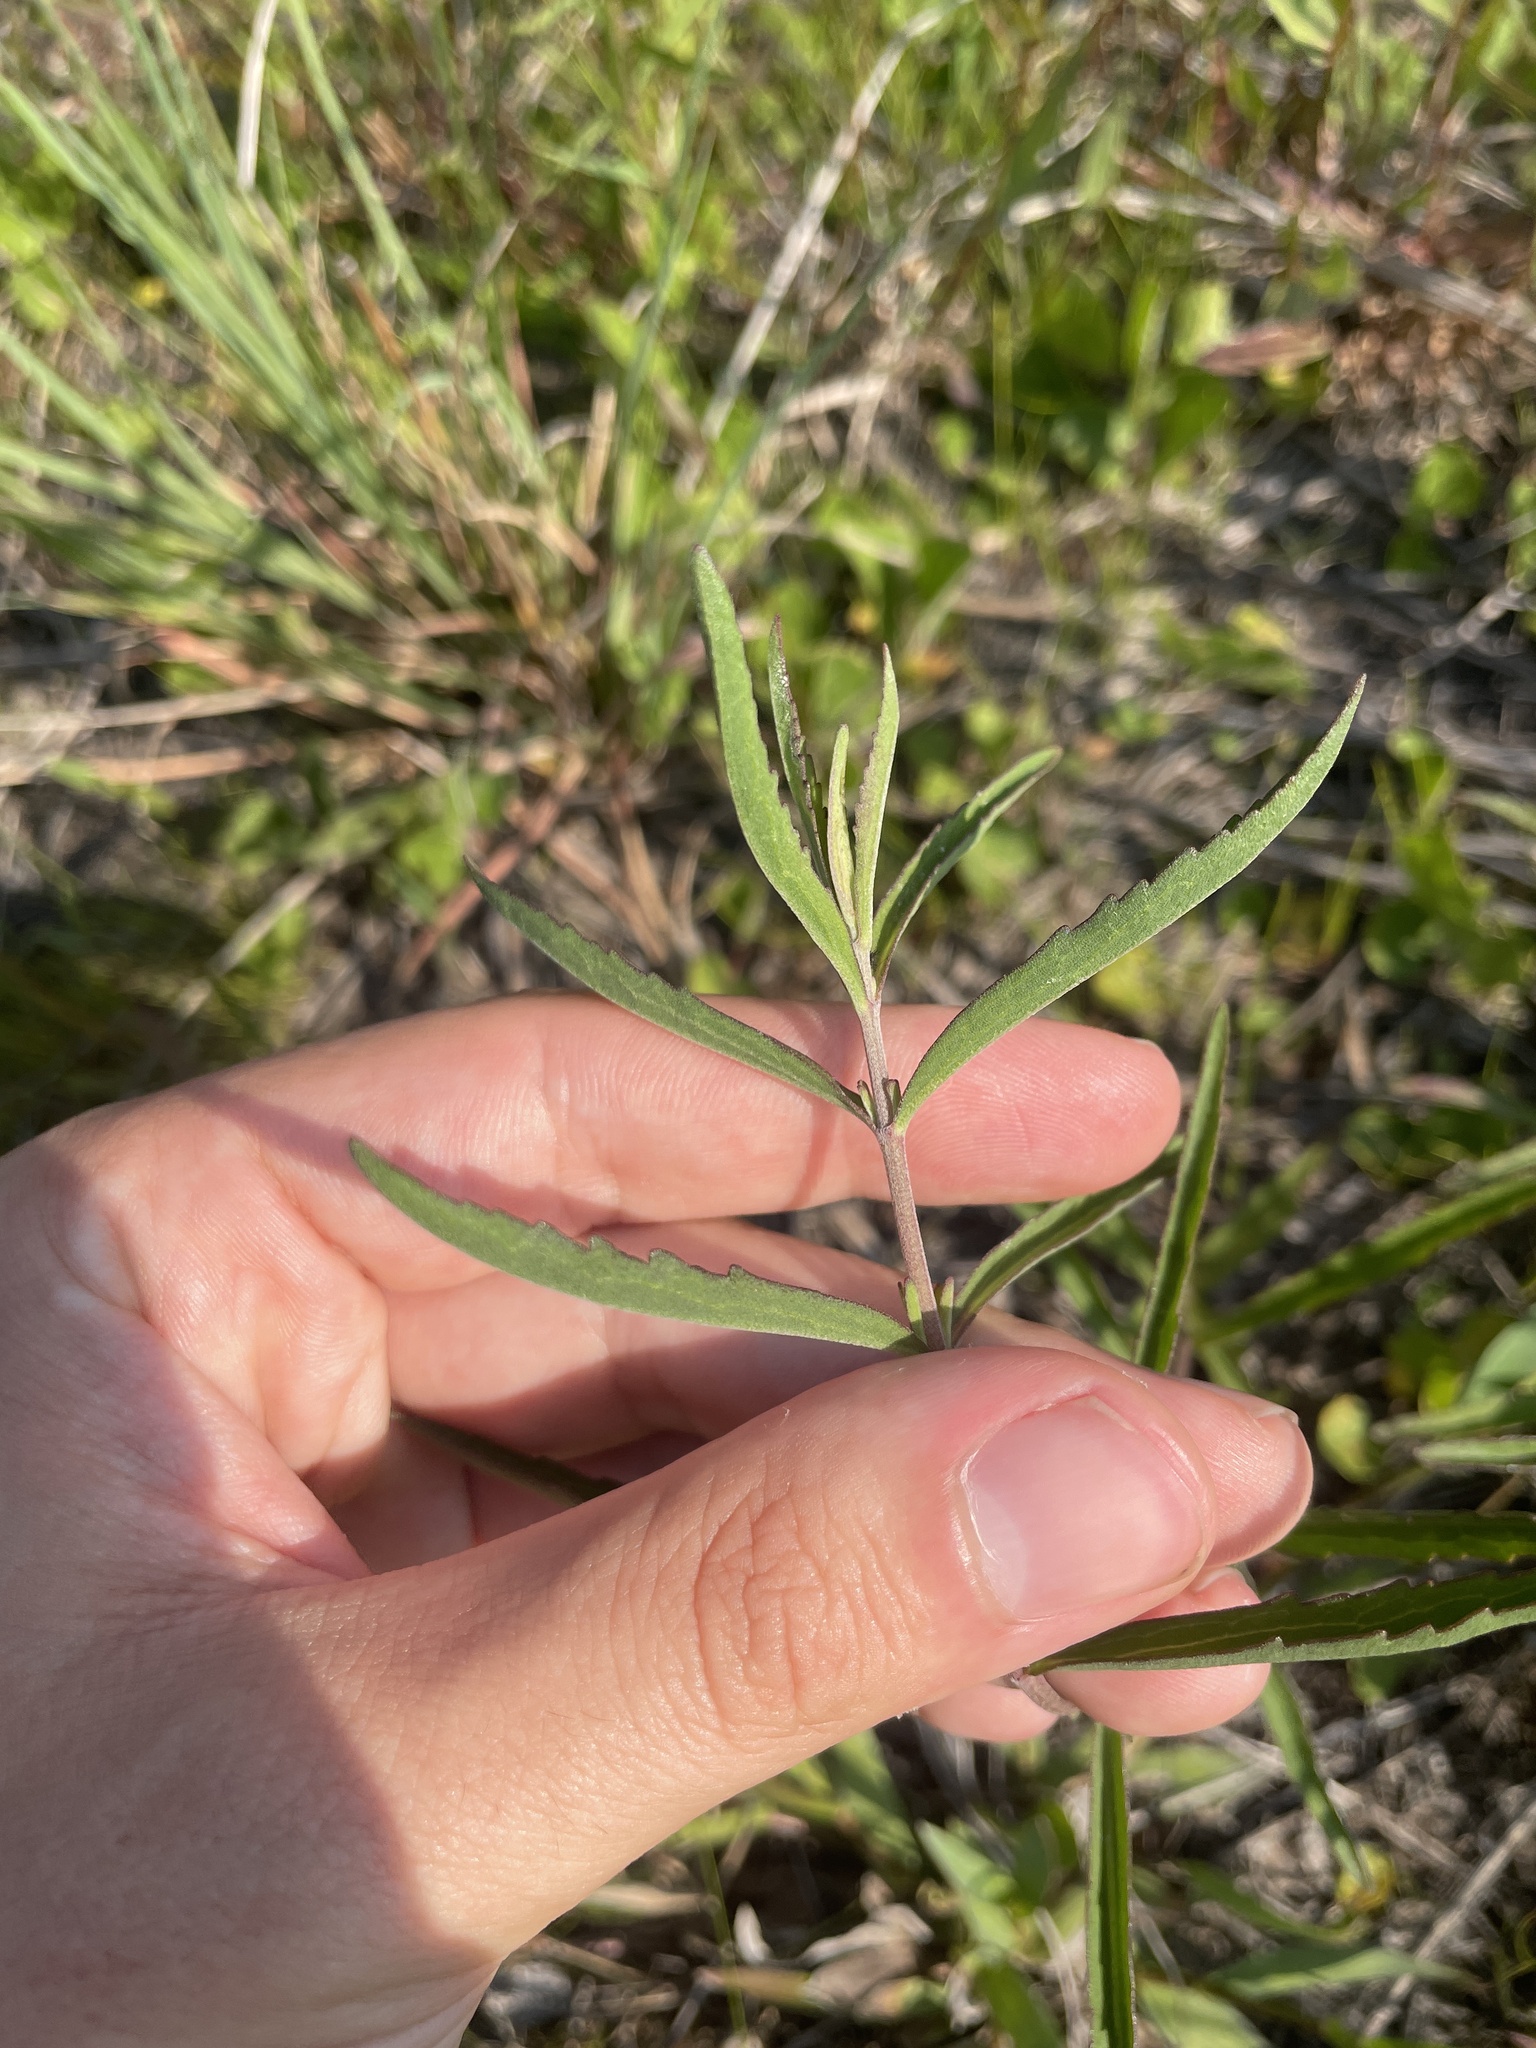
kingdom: Plantae
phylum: Tracheophyta
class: Magnoliopsida
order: Asterales
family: Asteraceae
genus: Eupatorium
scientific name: Eupatorium leucolepis
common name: Justiceweed
